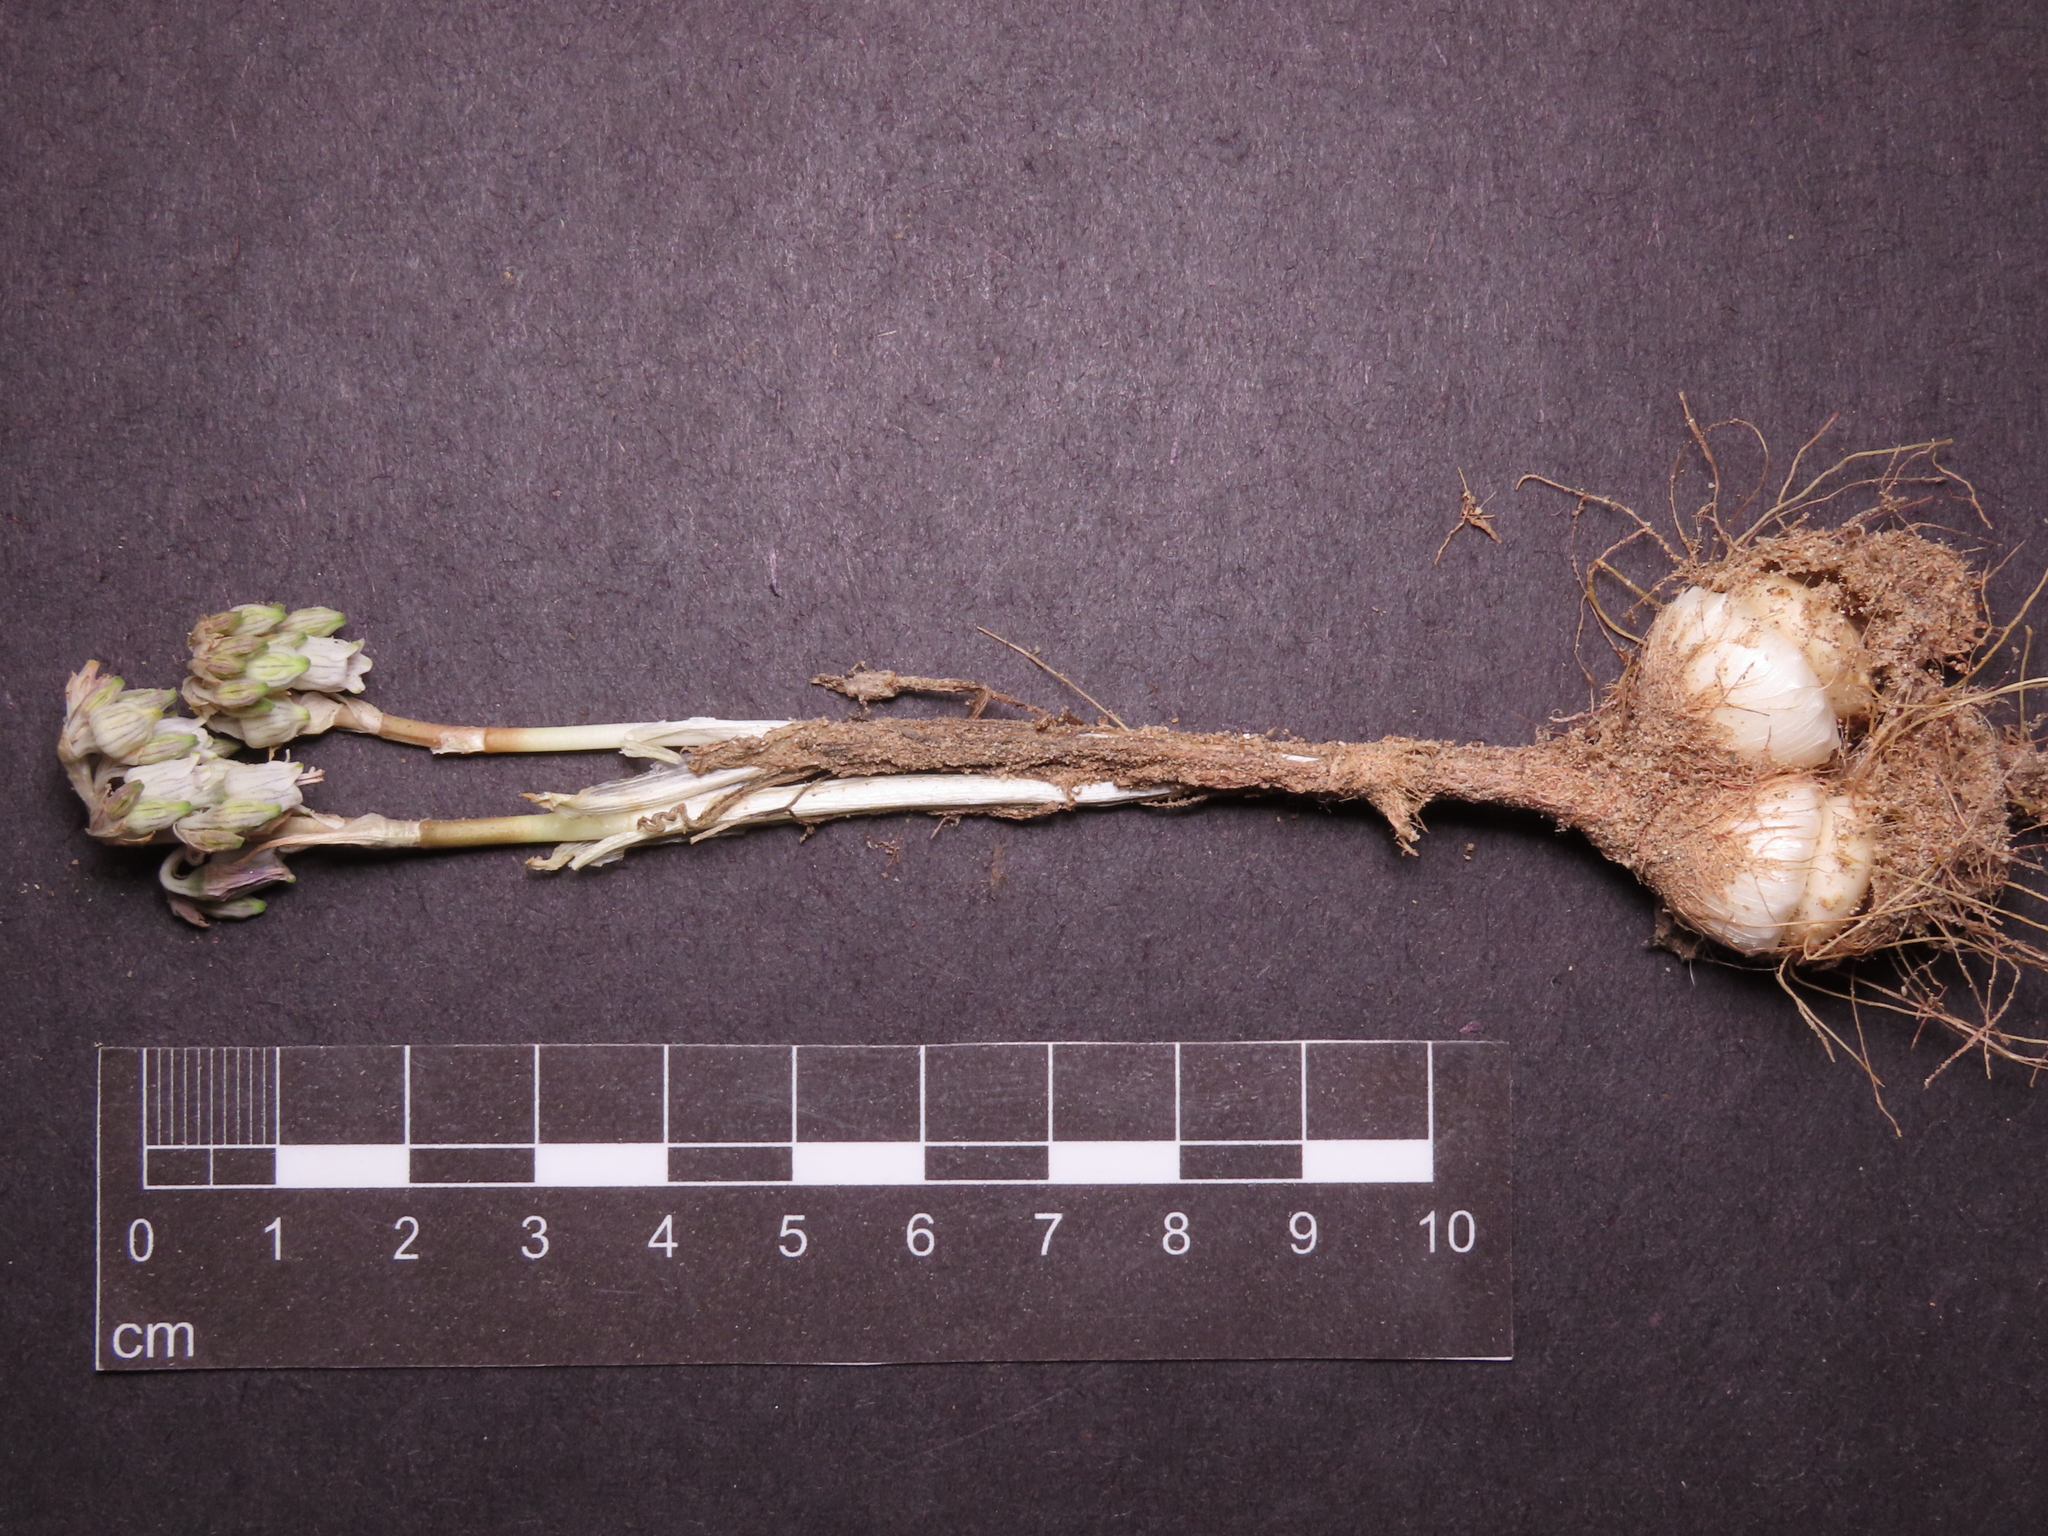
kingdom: Plantae
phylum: Tracheophyta
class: Liliopsida
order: Asparagales
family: Tecophilaeaceae
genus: Conanthera
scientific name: Conanthera urceolata
